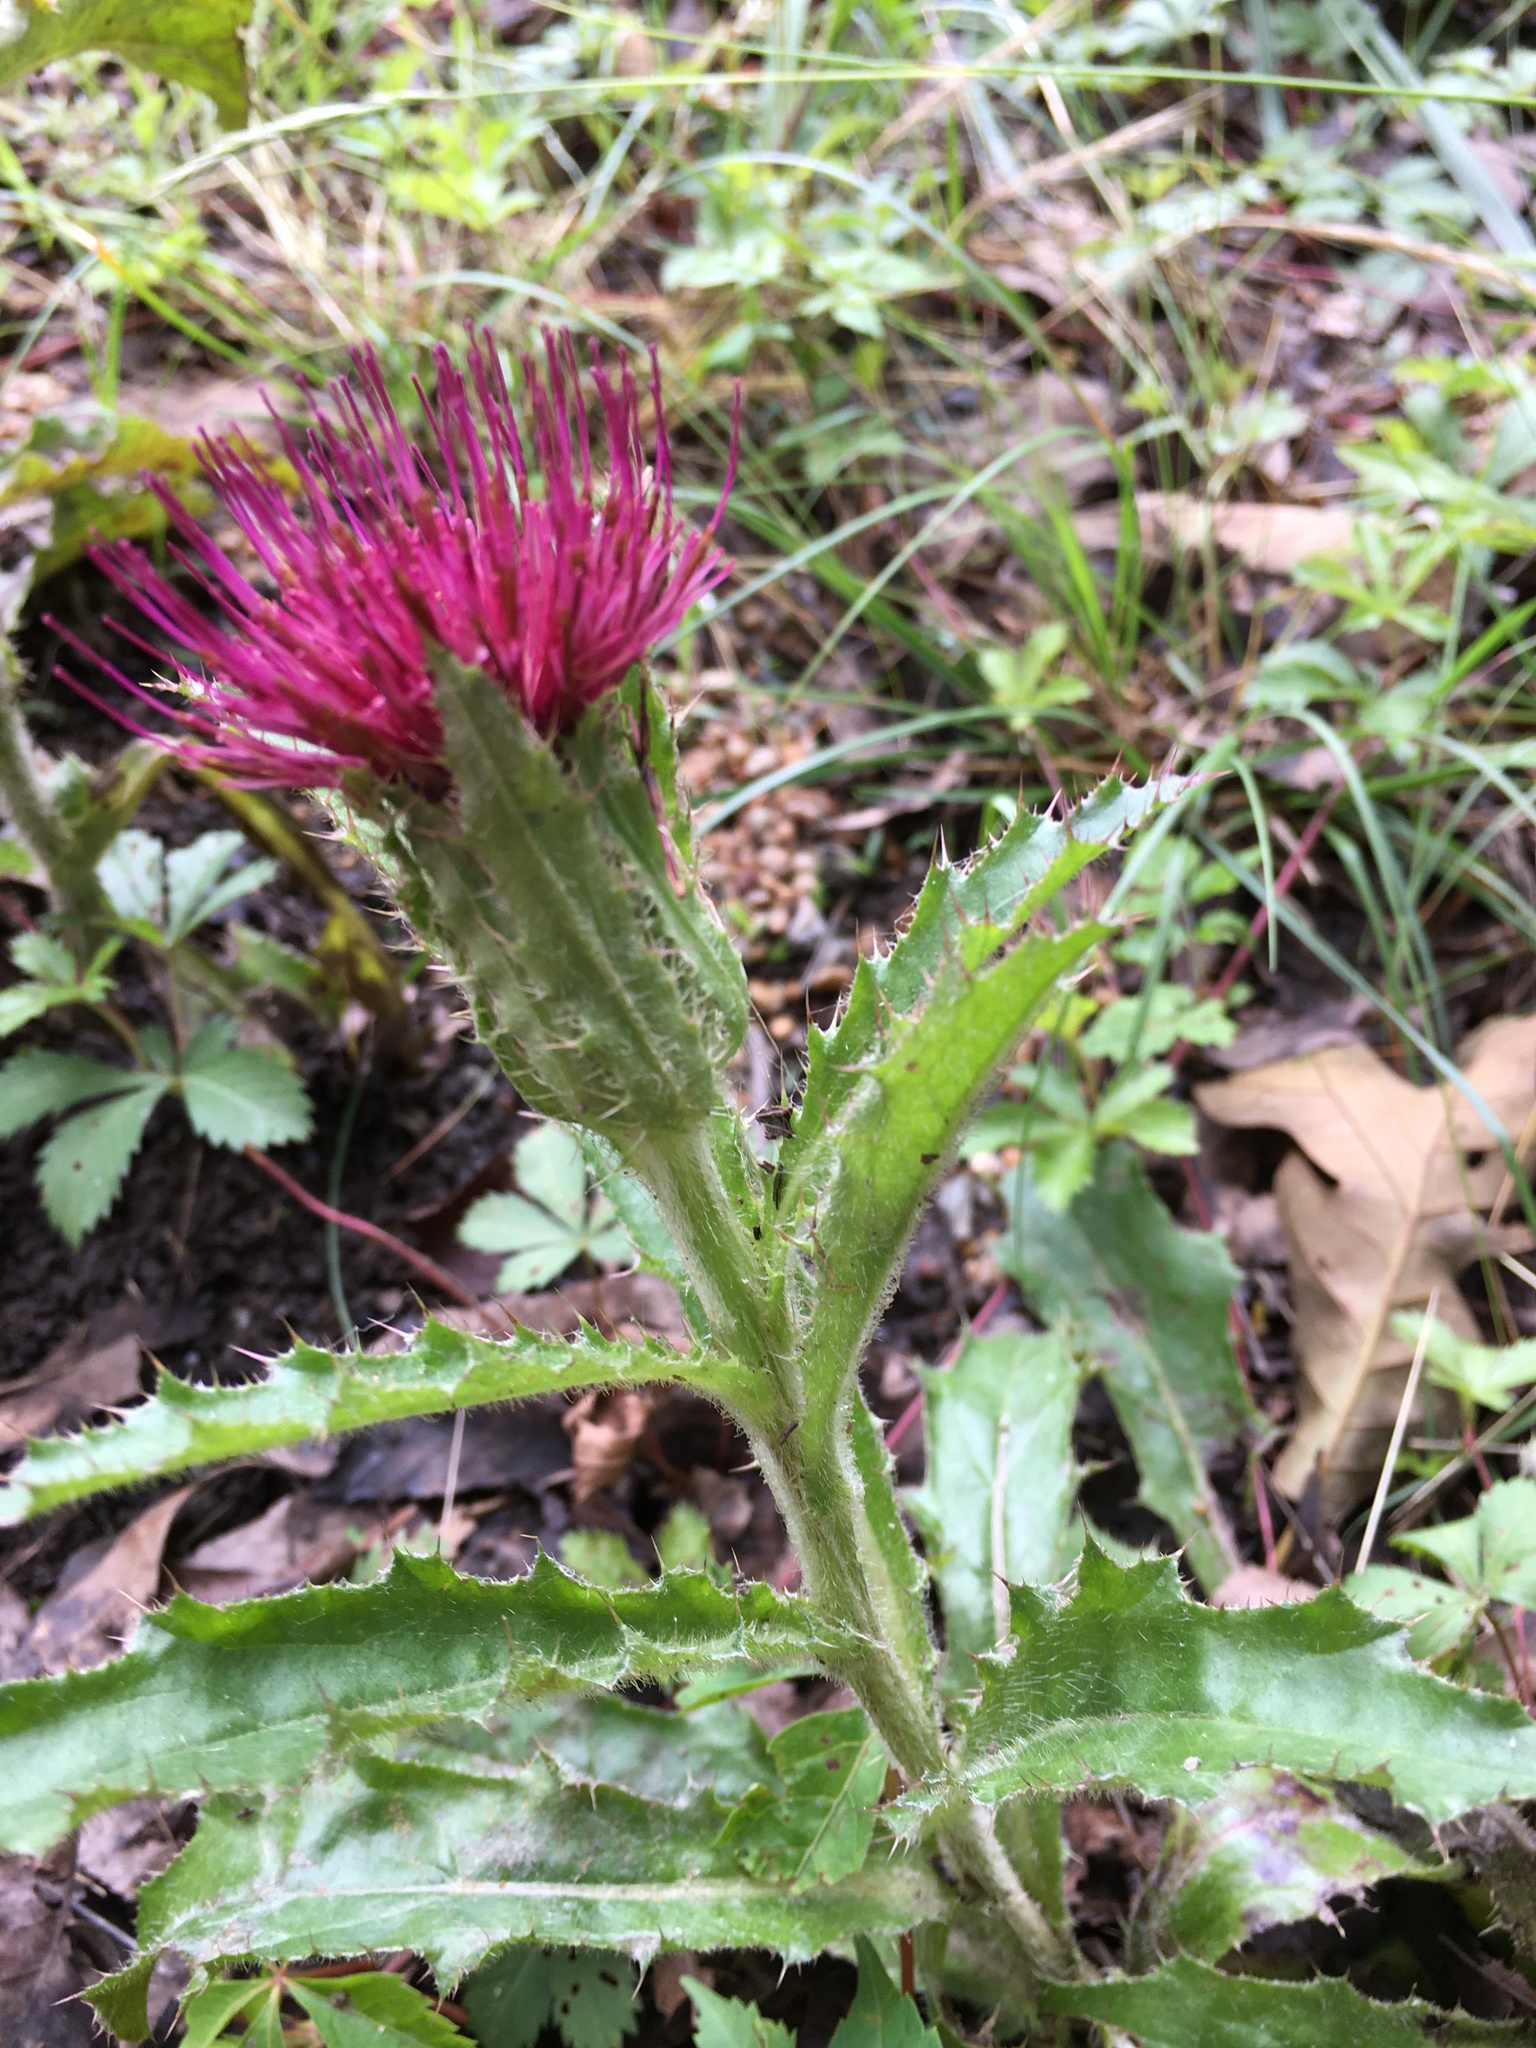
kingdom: Plantae
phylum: Tracheophyta
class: Magnoliopsida
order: Asterales
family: Asteraceae
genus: Cirsium
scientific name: Cirsium horridulum
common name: Bristly thistle
